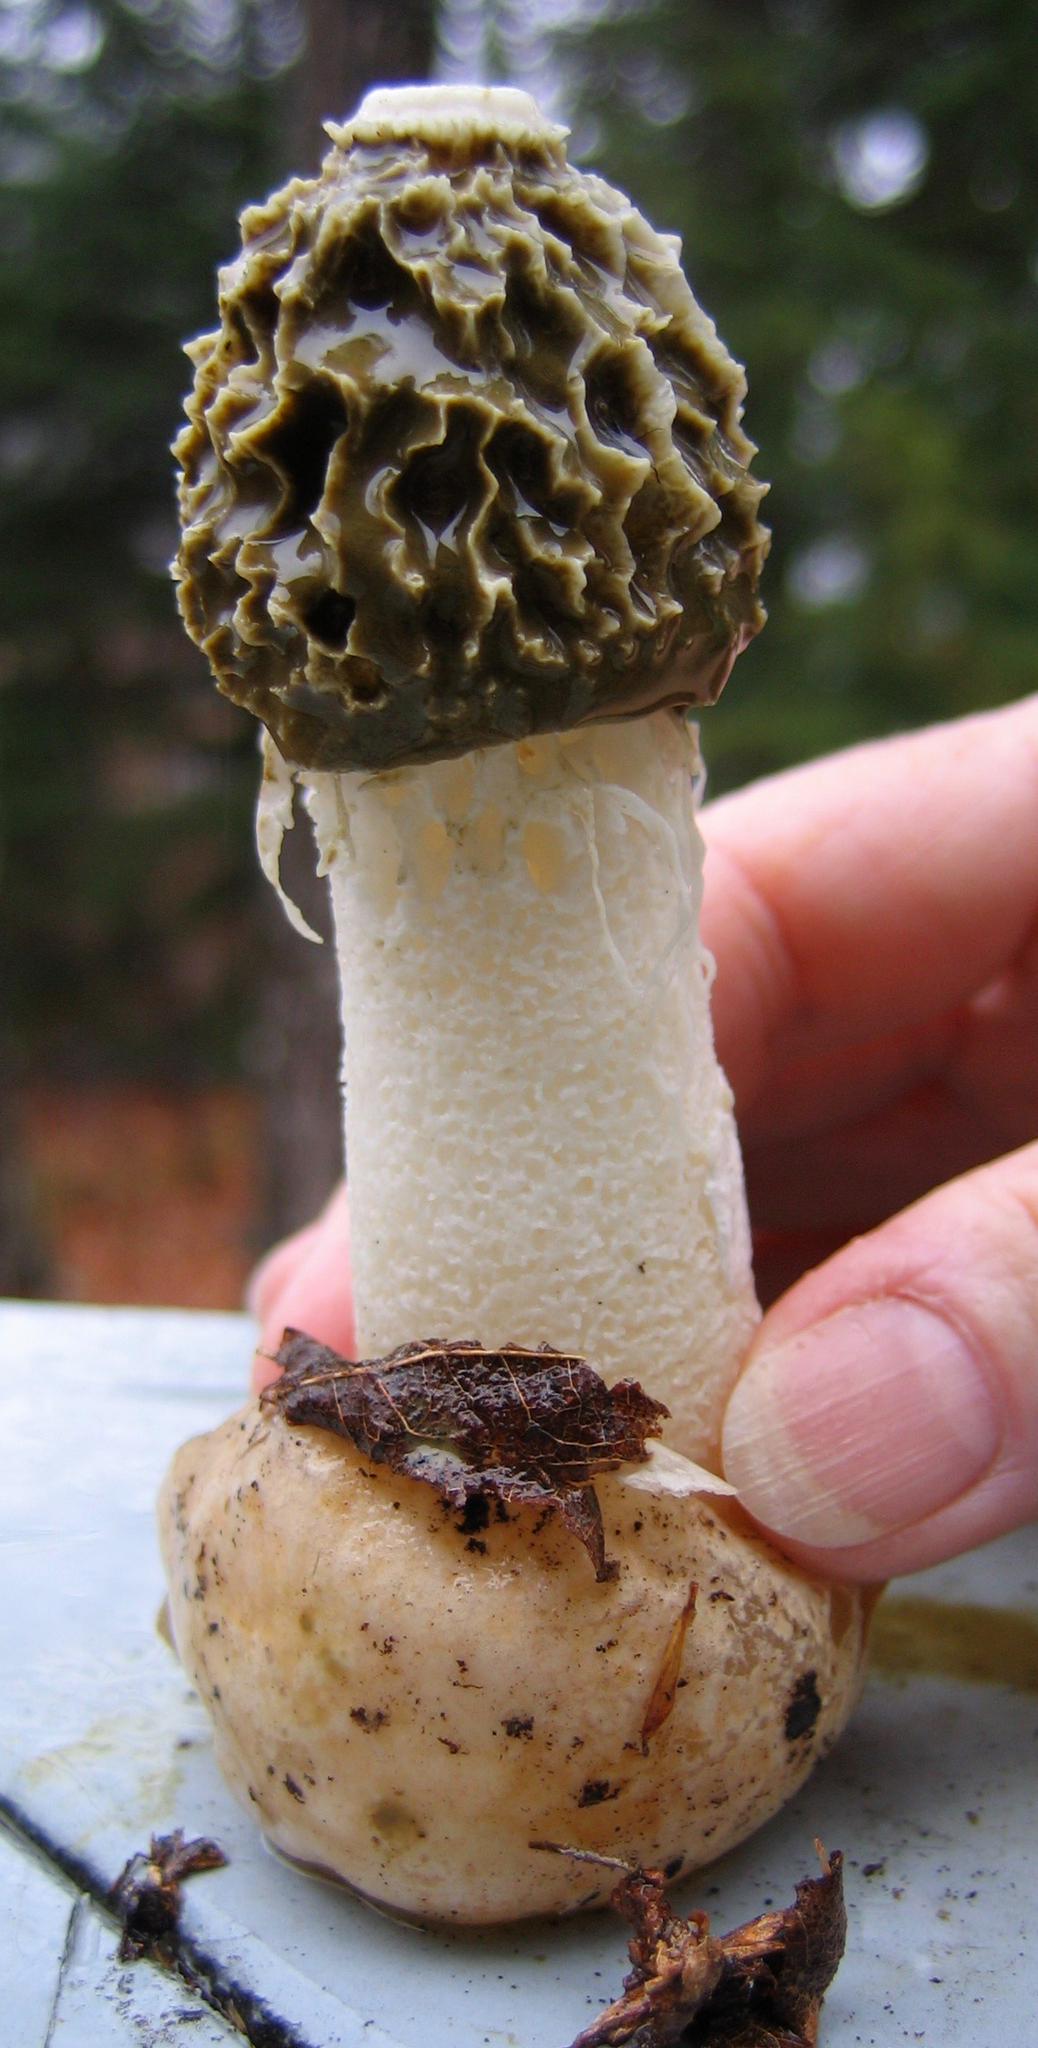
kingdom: Fungi
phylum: Basidiomycota
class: Agaricomycetes
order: Phallales
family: Phallaceae
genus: Phallus
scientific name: Phallus indusiatus
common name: Bridal veil stinkhorn
